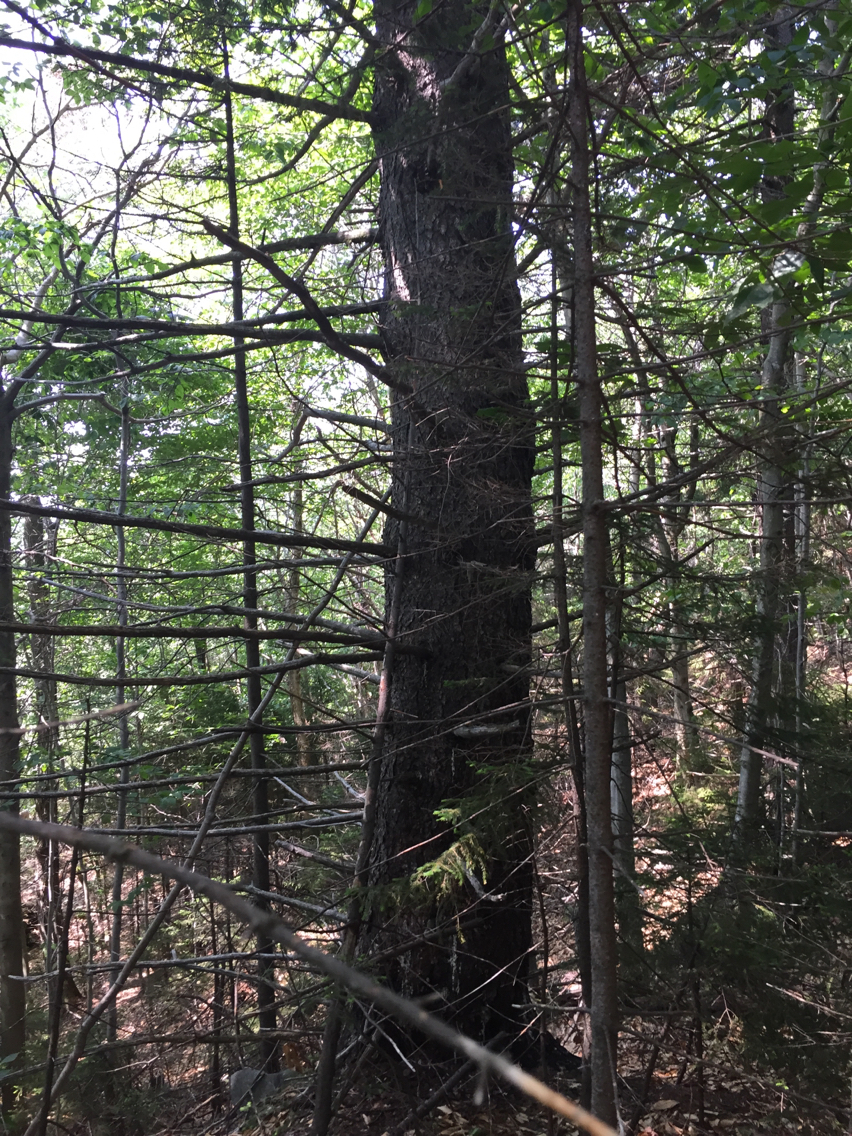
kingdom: Plantae
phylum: Tracheophyta
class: Pinopsida
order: Pinales
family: Pinaceae
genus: Picea
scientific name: Picea rubens
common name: Red spruce
